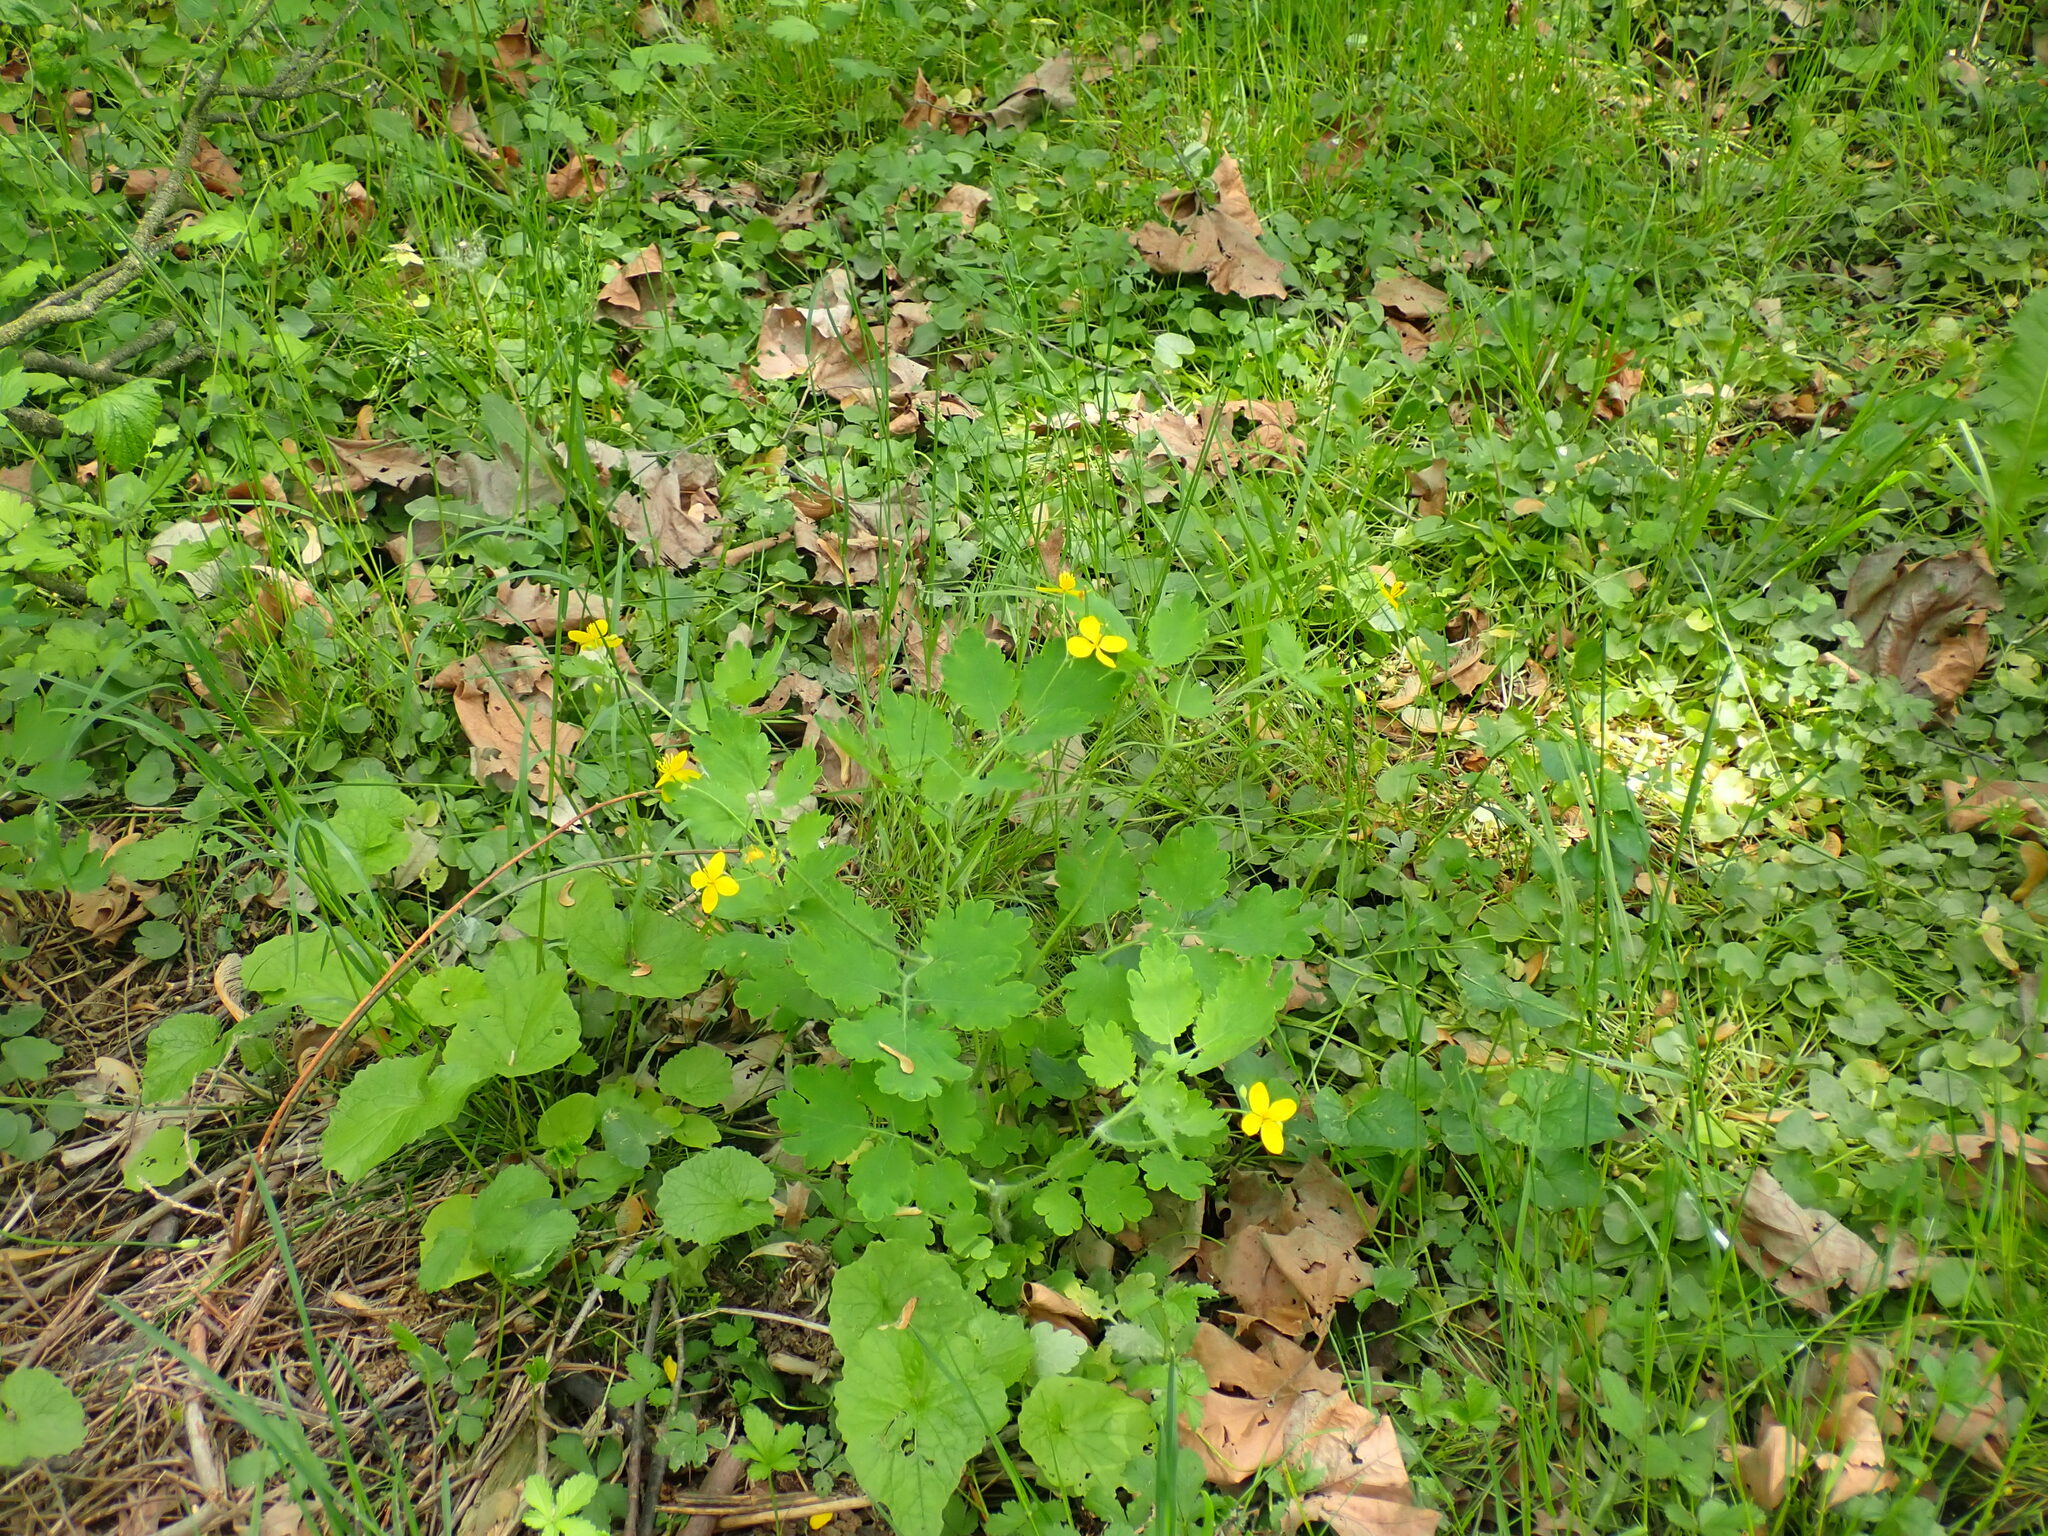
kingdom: Plantae
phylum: Tracheophyta
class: Magnoliopsida
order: Ranunculales
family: Papaveraceae
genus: Chelidonium
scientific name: Chelidonium majus
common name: Greater celandine
